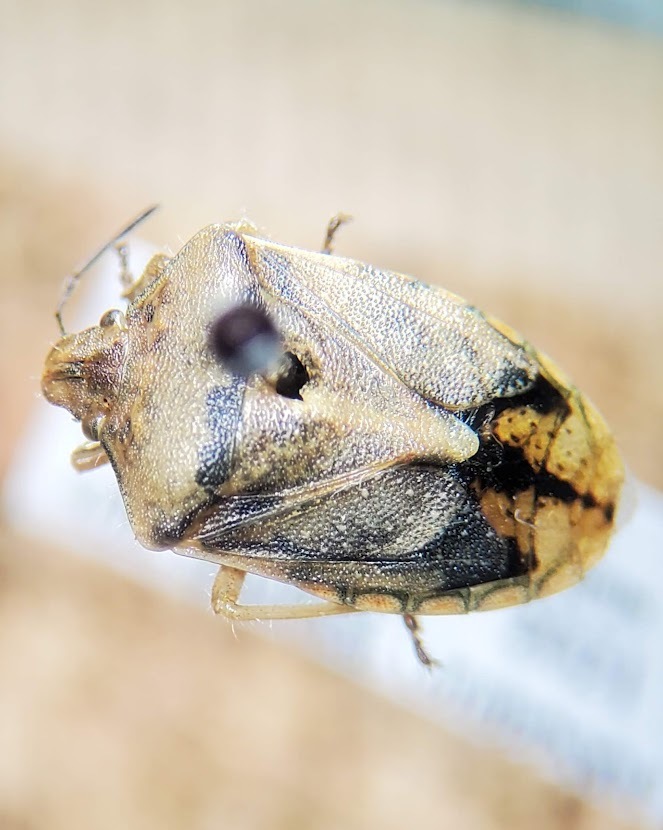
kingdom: Animalia
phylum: Arthropoda
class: Insecta
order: Hemiptera
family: Pentatomidae
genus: Thyanta
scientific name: Thyanta calceata
